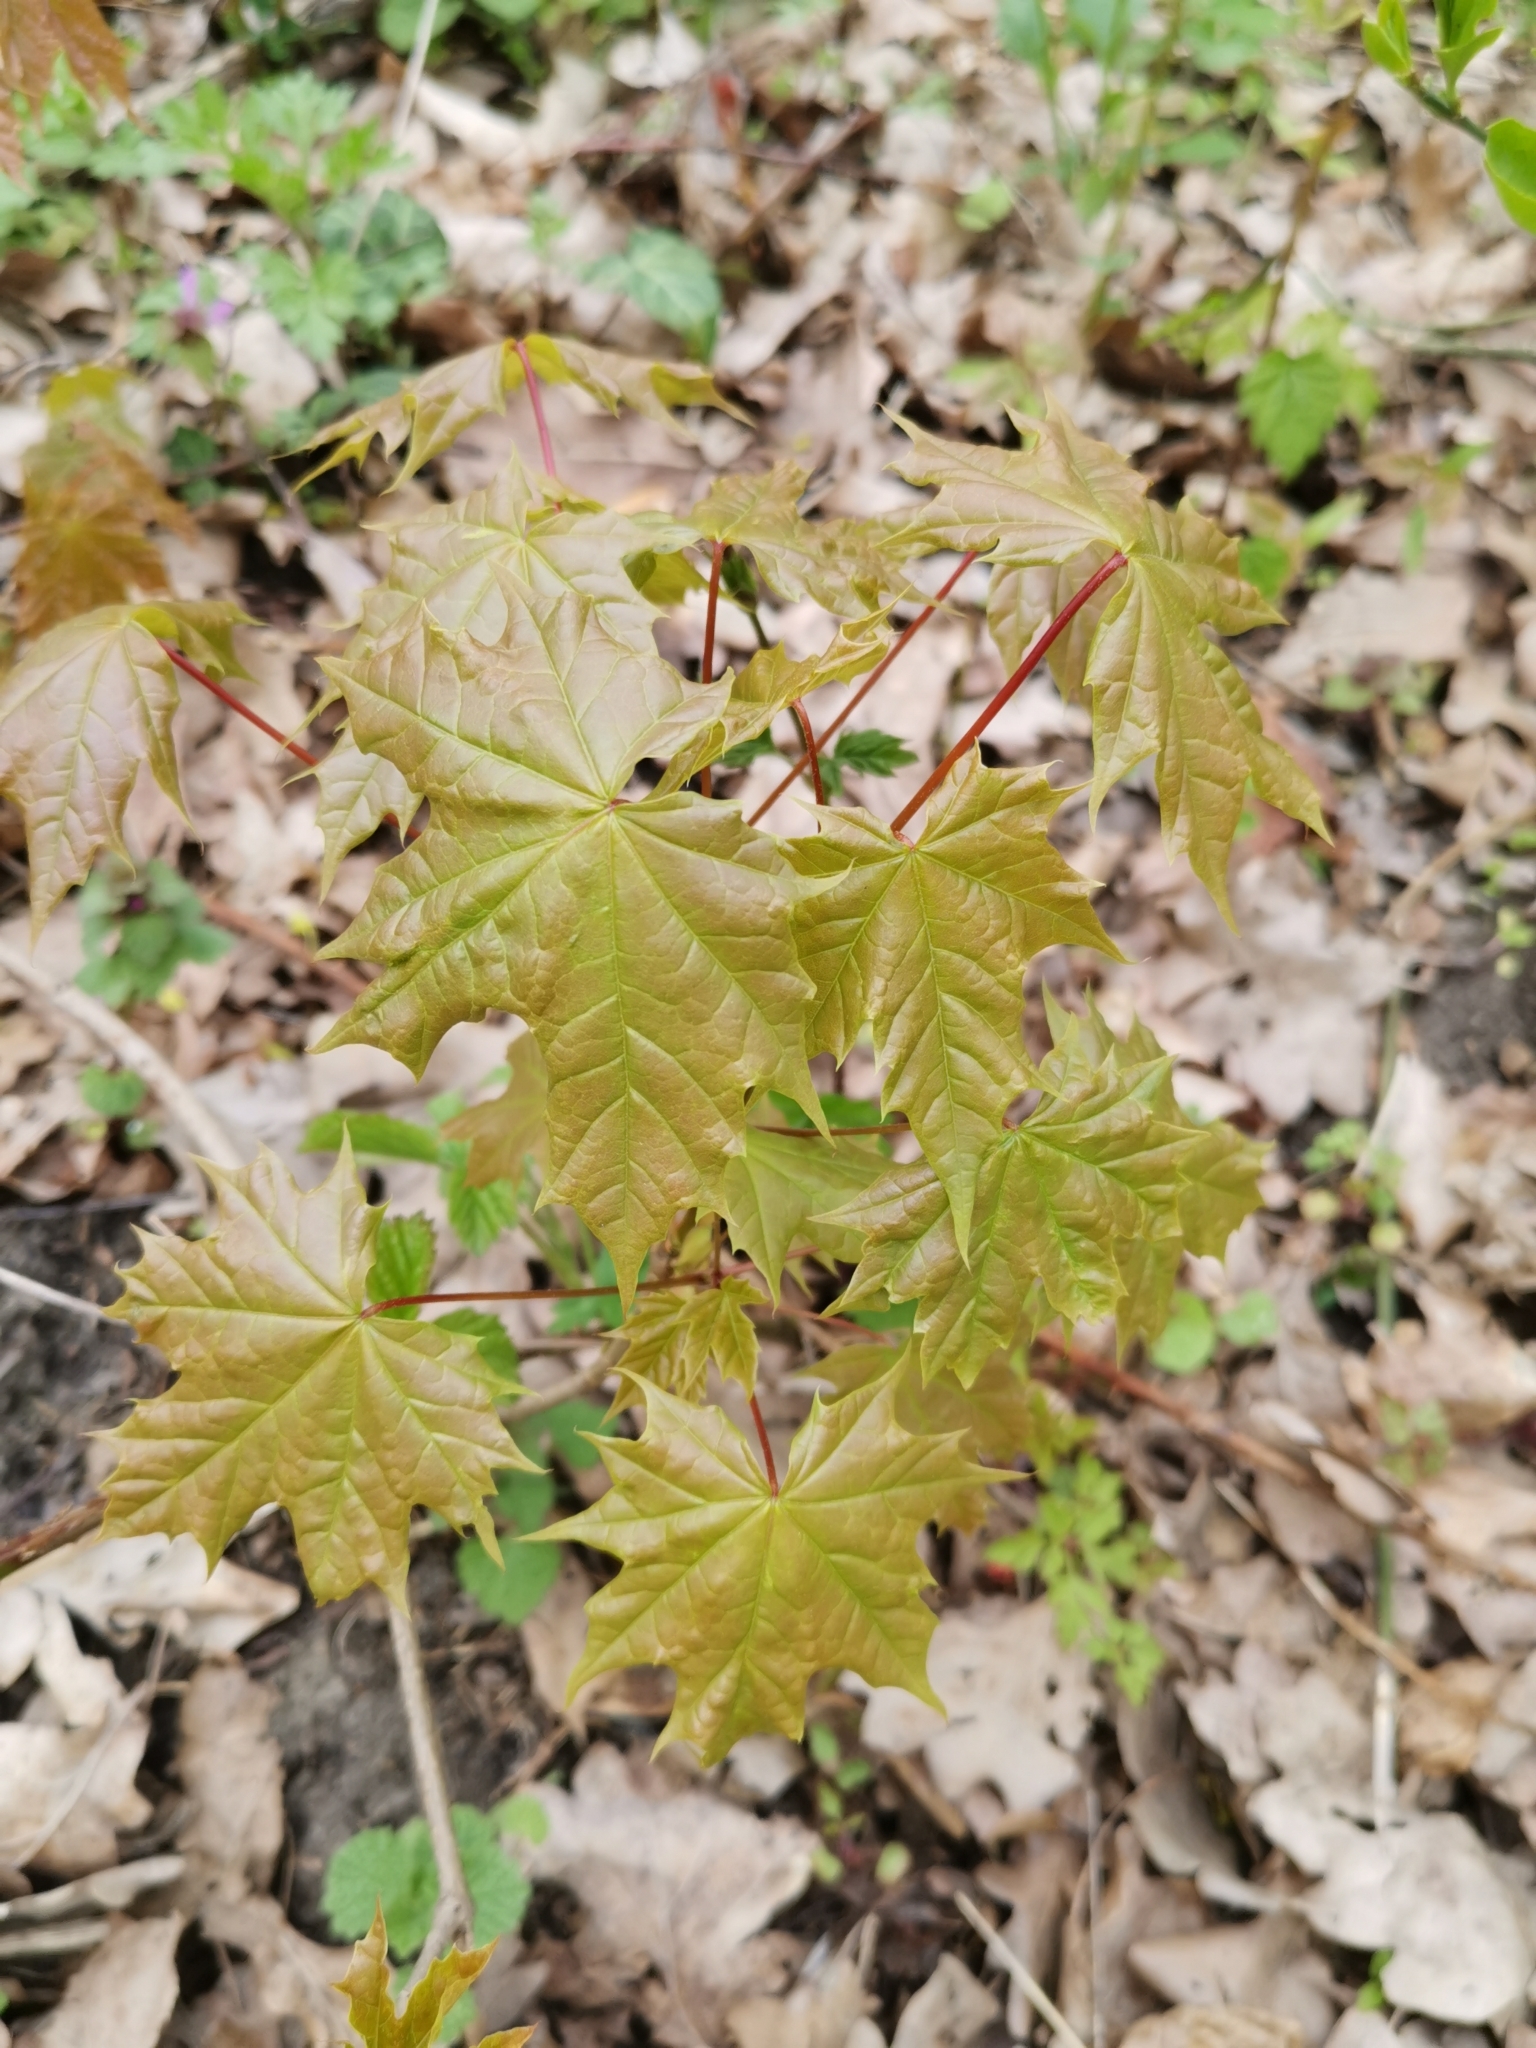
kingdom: Plantae
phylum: Tracheophyta
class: Magnoliopsida
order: Sapindales
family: Sapindaceae
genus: Acer
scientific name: Acer platanoides
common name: Norway maple
